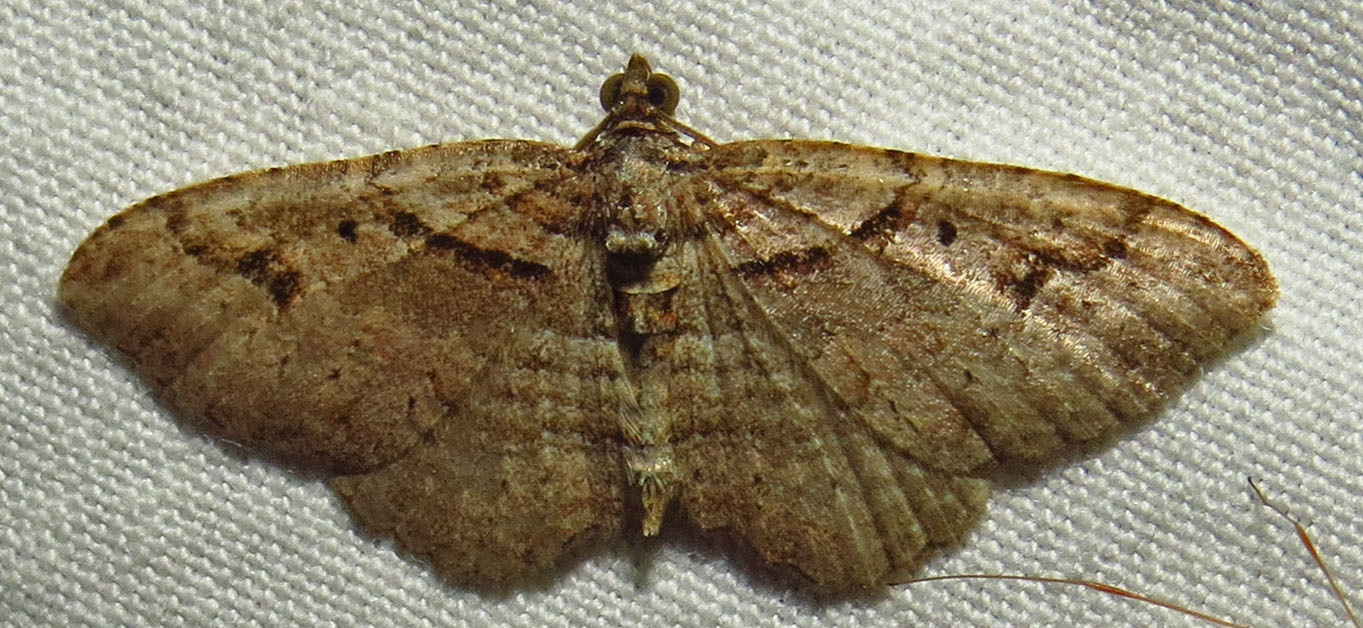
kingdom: Animalia
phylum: Arthropoda
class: Insecta
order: Lepidoptera
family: Geometridae
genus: Costaconvexa
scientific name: Costaconvexa centrostrigaria
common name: Bent-line carpet
